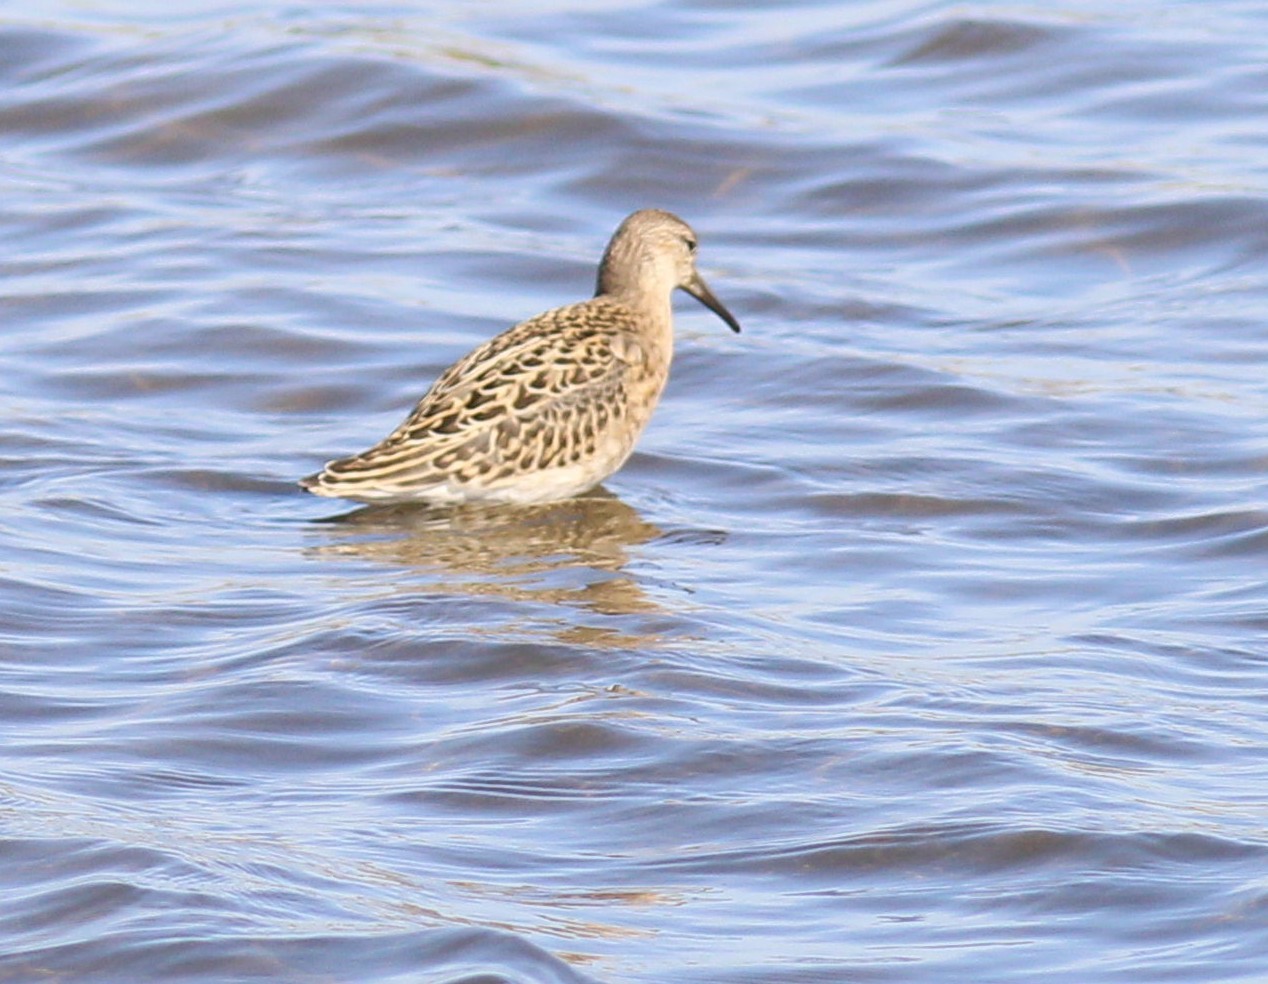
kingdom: Animalia
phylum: Chordata
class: Aves
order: Charadriiformes
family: Scolopacidae
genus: Calidris
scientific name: Calidris pugnax
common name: Ruff
